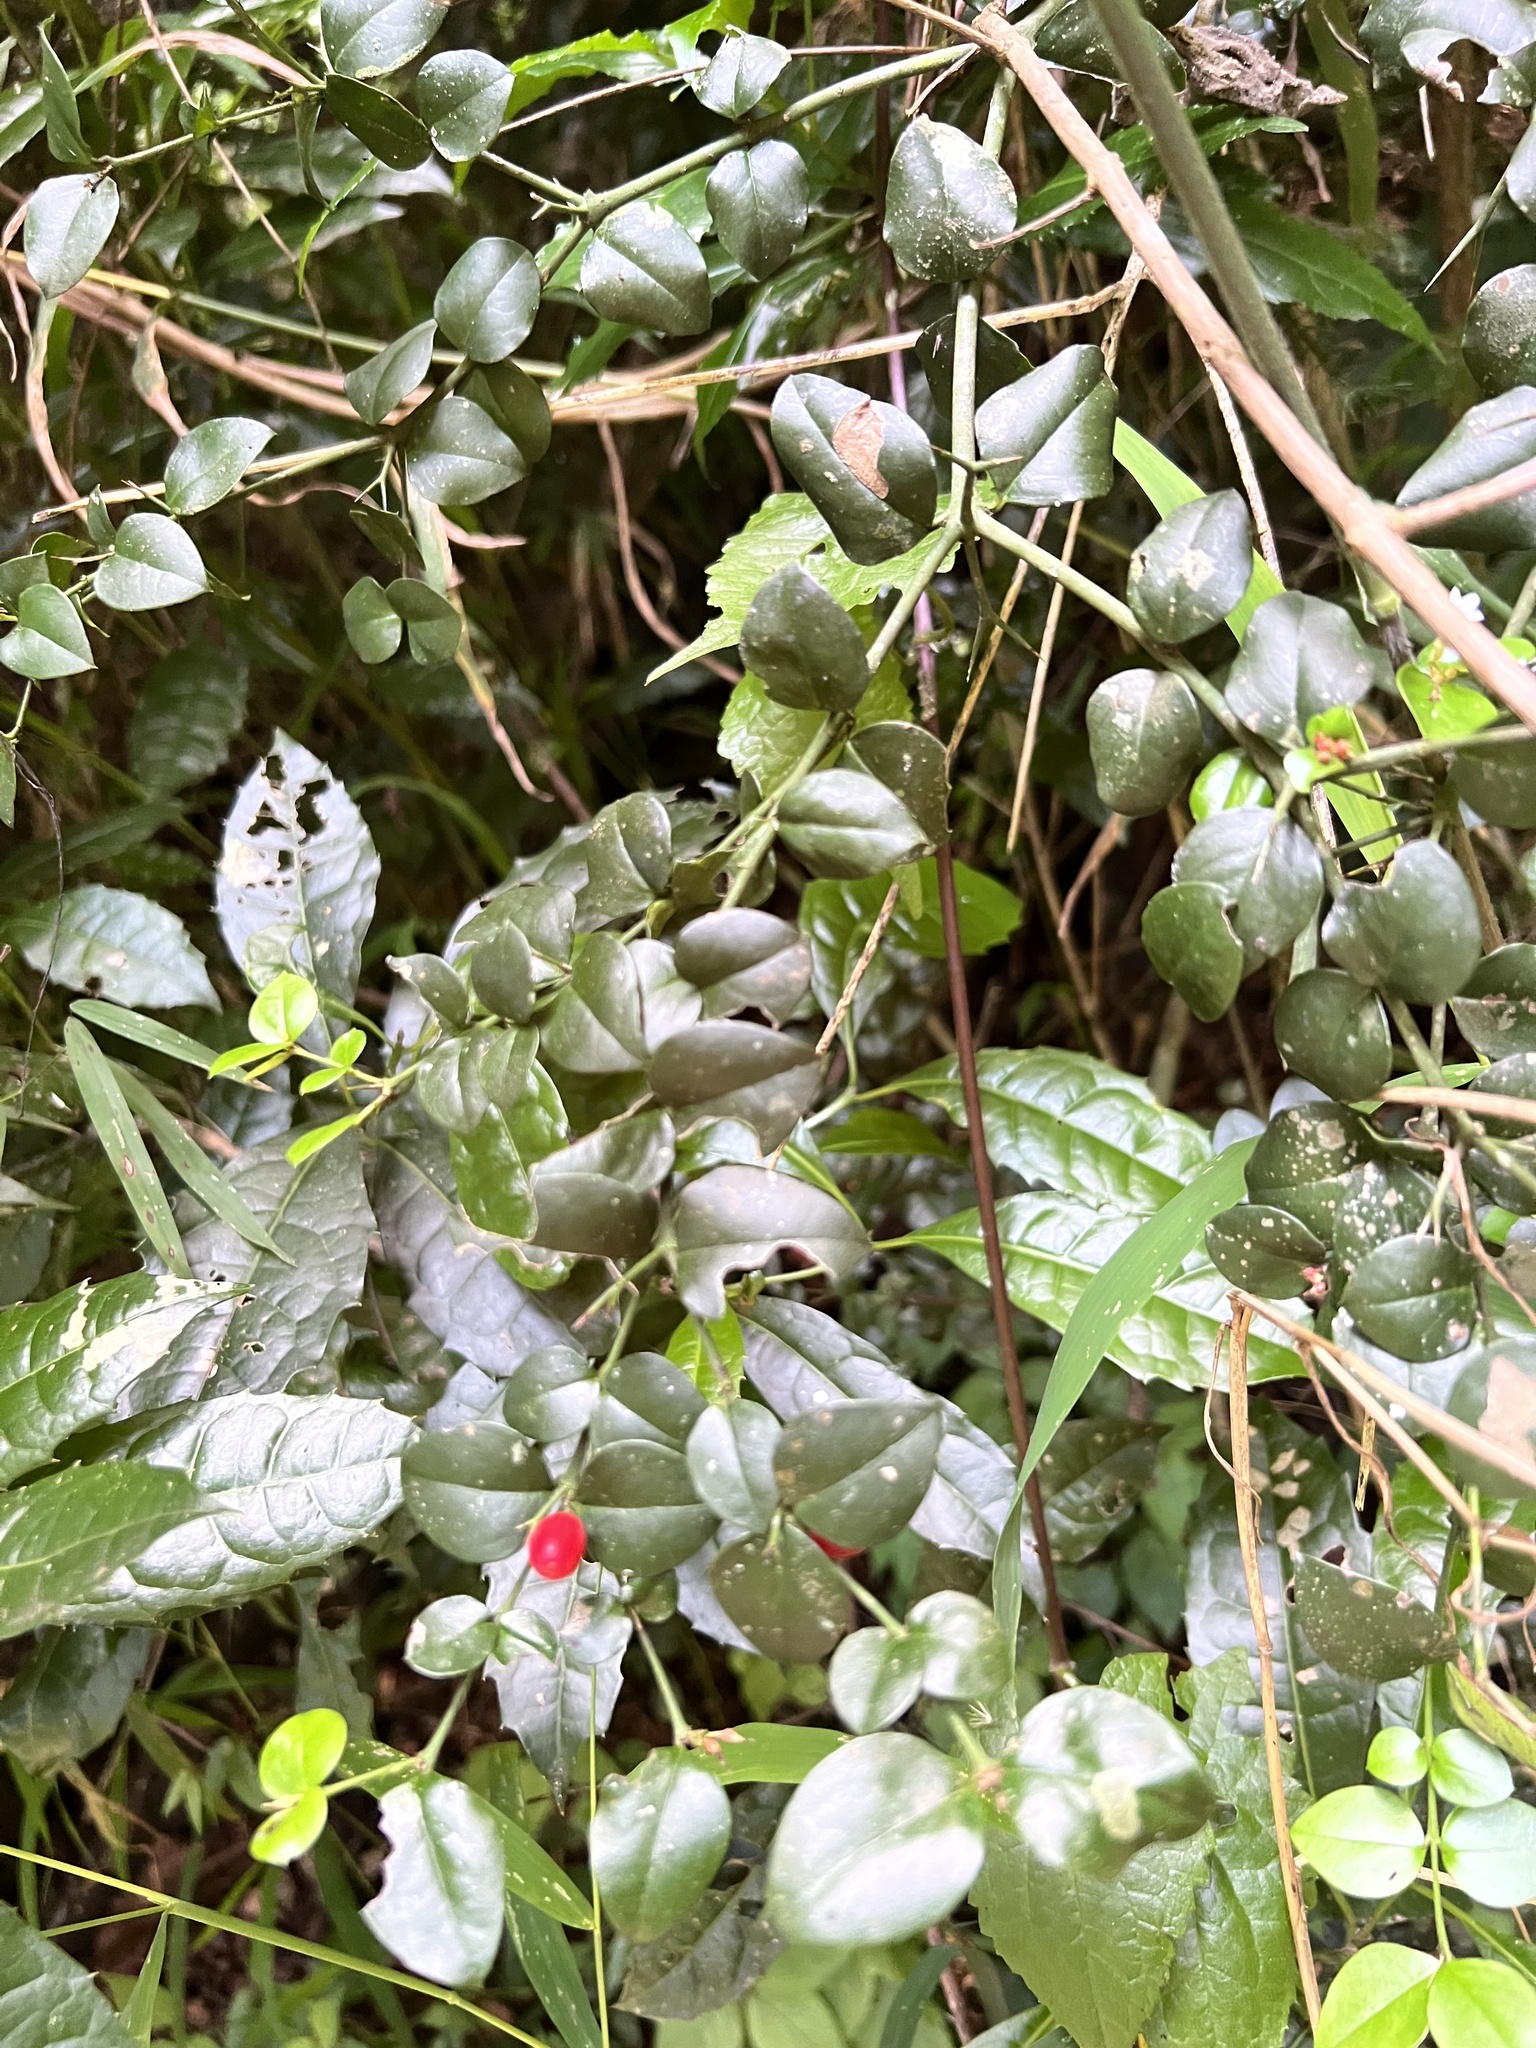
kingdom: Plantae
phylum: Tracheophyta
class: Magnoliopsida
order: Gentianales
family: Apocynaceae
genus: Carissa
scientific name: Carissa bispinosa
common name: Forest num-num
